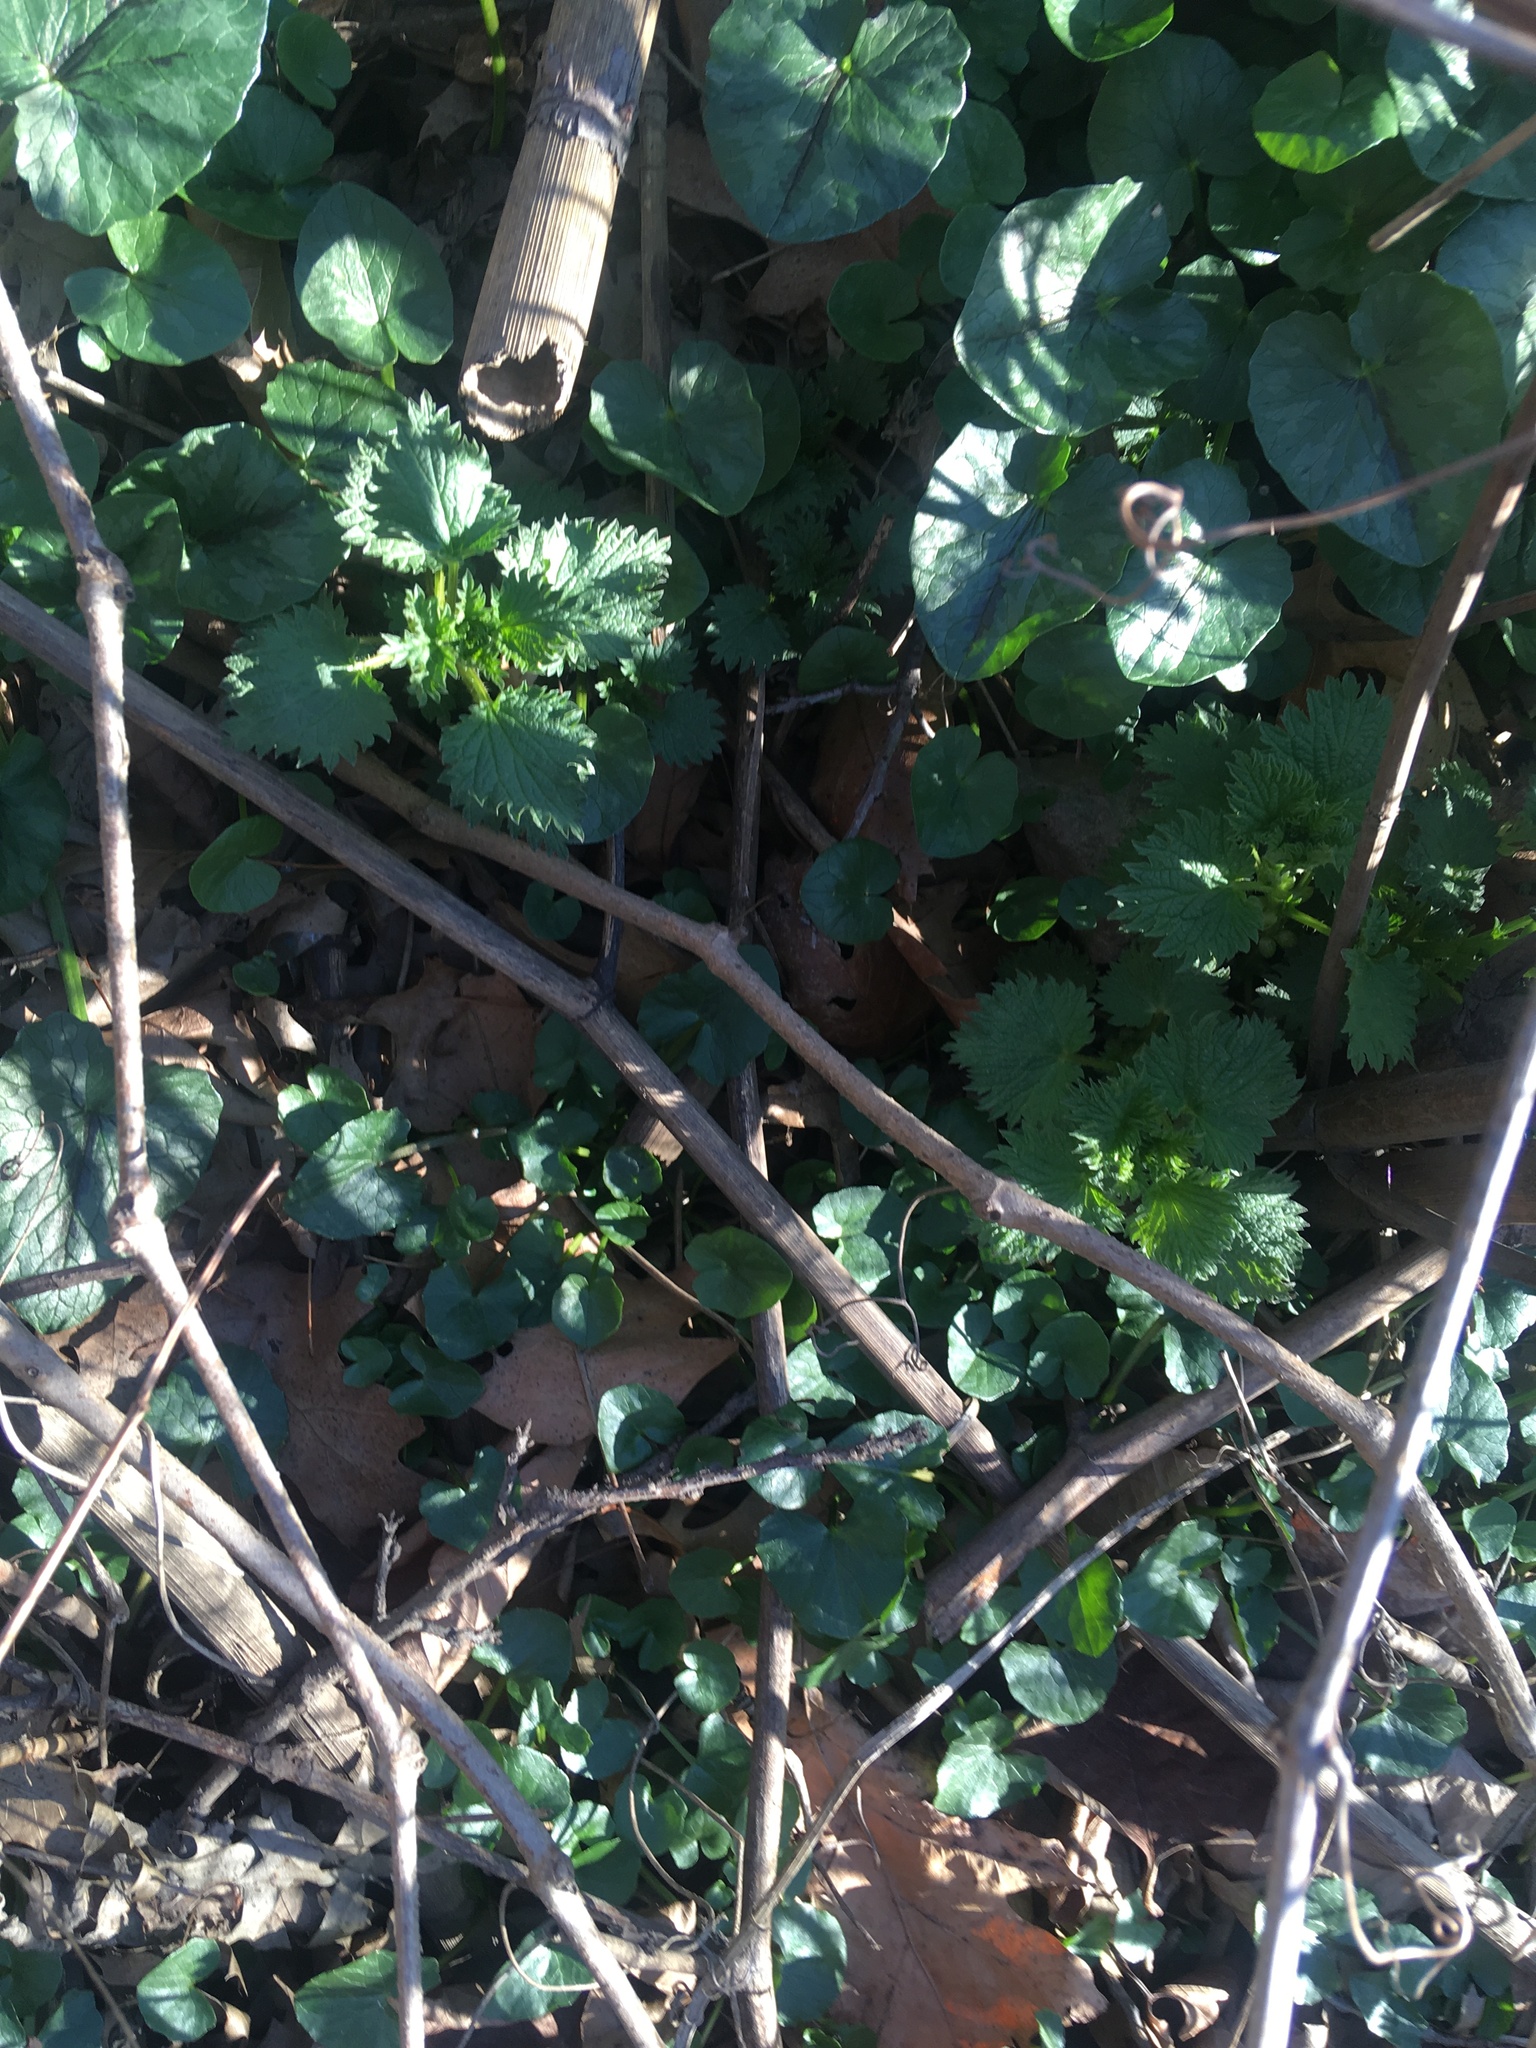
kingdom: Plantae
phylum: Tracheophyta
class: Magnoliopsida
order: Ranunculales
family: Ranunculaceae
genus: Ficaria
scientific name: Ficaria verna
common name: Lesser celandine
